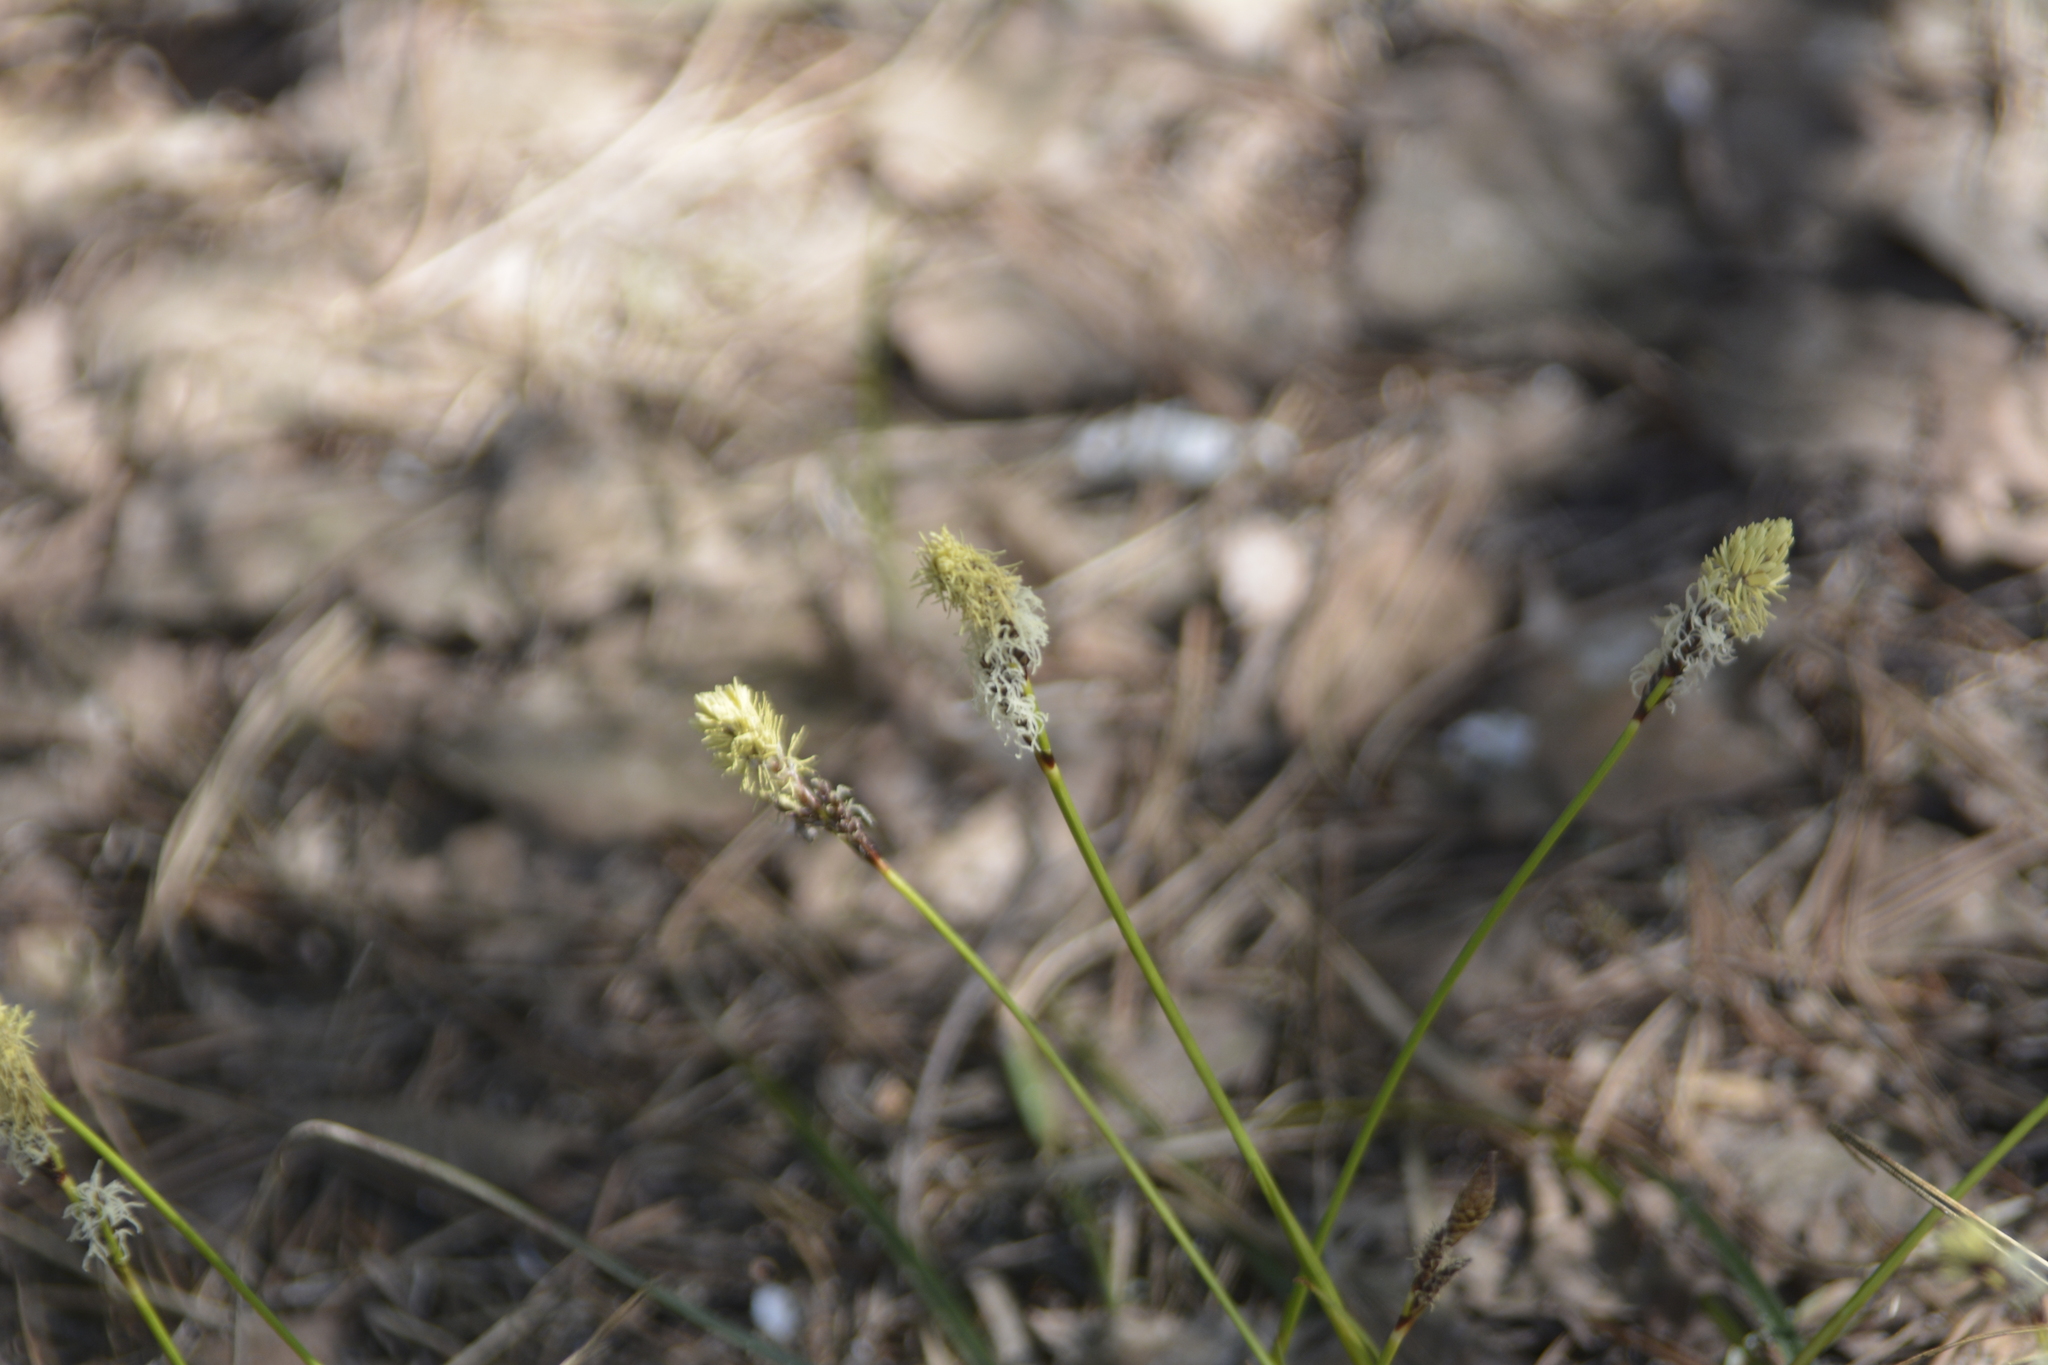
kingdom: Plantae
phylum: Tracheophyta
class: Liliopsida
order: Poales
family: Cyperaceae
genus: Carex
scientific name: Carex ericetorum
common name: Rare spring-sedge
